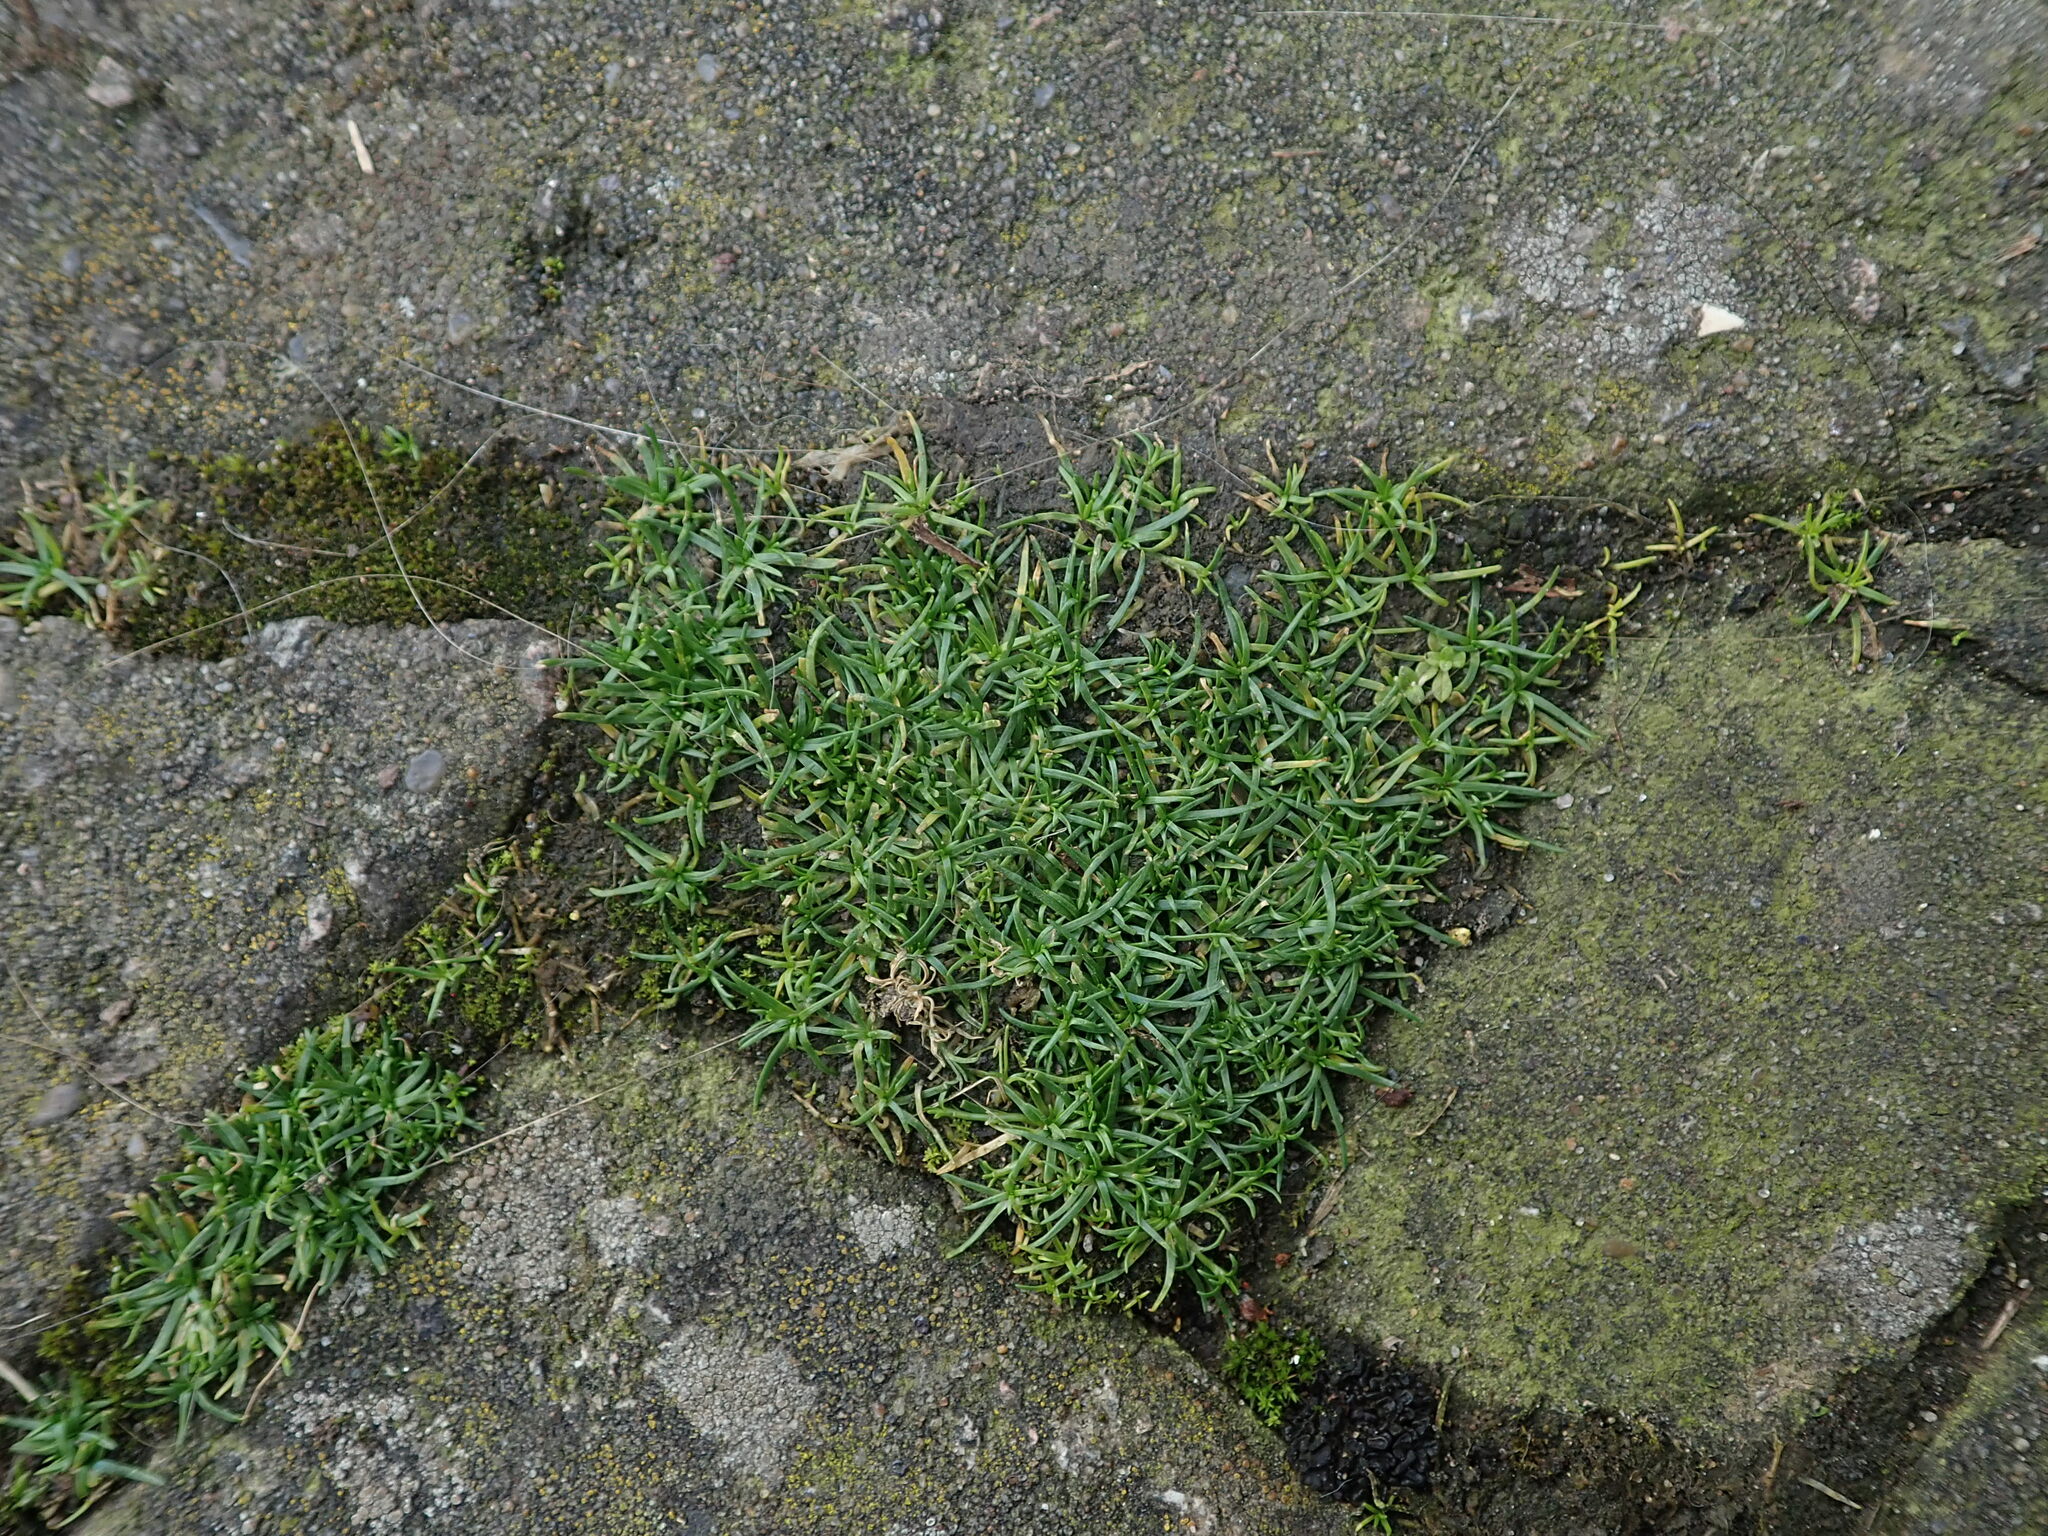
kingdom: Plantae
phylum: Tracheophyta
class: Magnoliopsida
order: Caryophyllales
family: Caryophyllaceae
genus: Sagina
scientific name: Sagina procumbens
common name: Procumbent pearlwort
